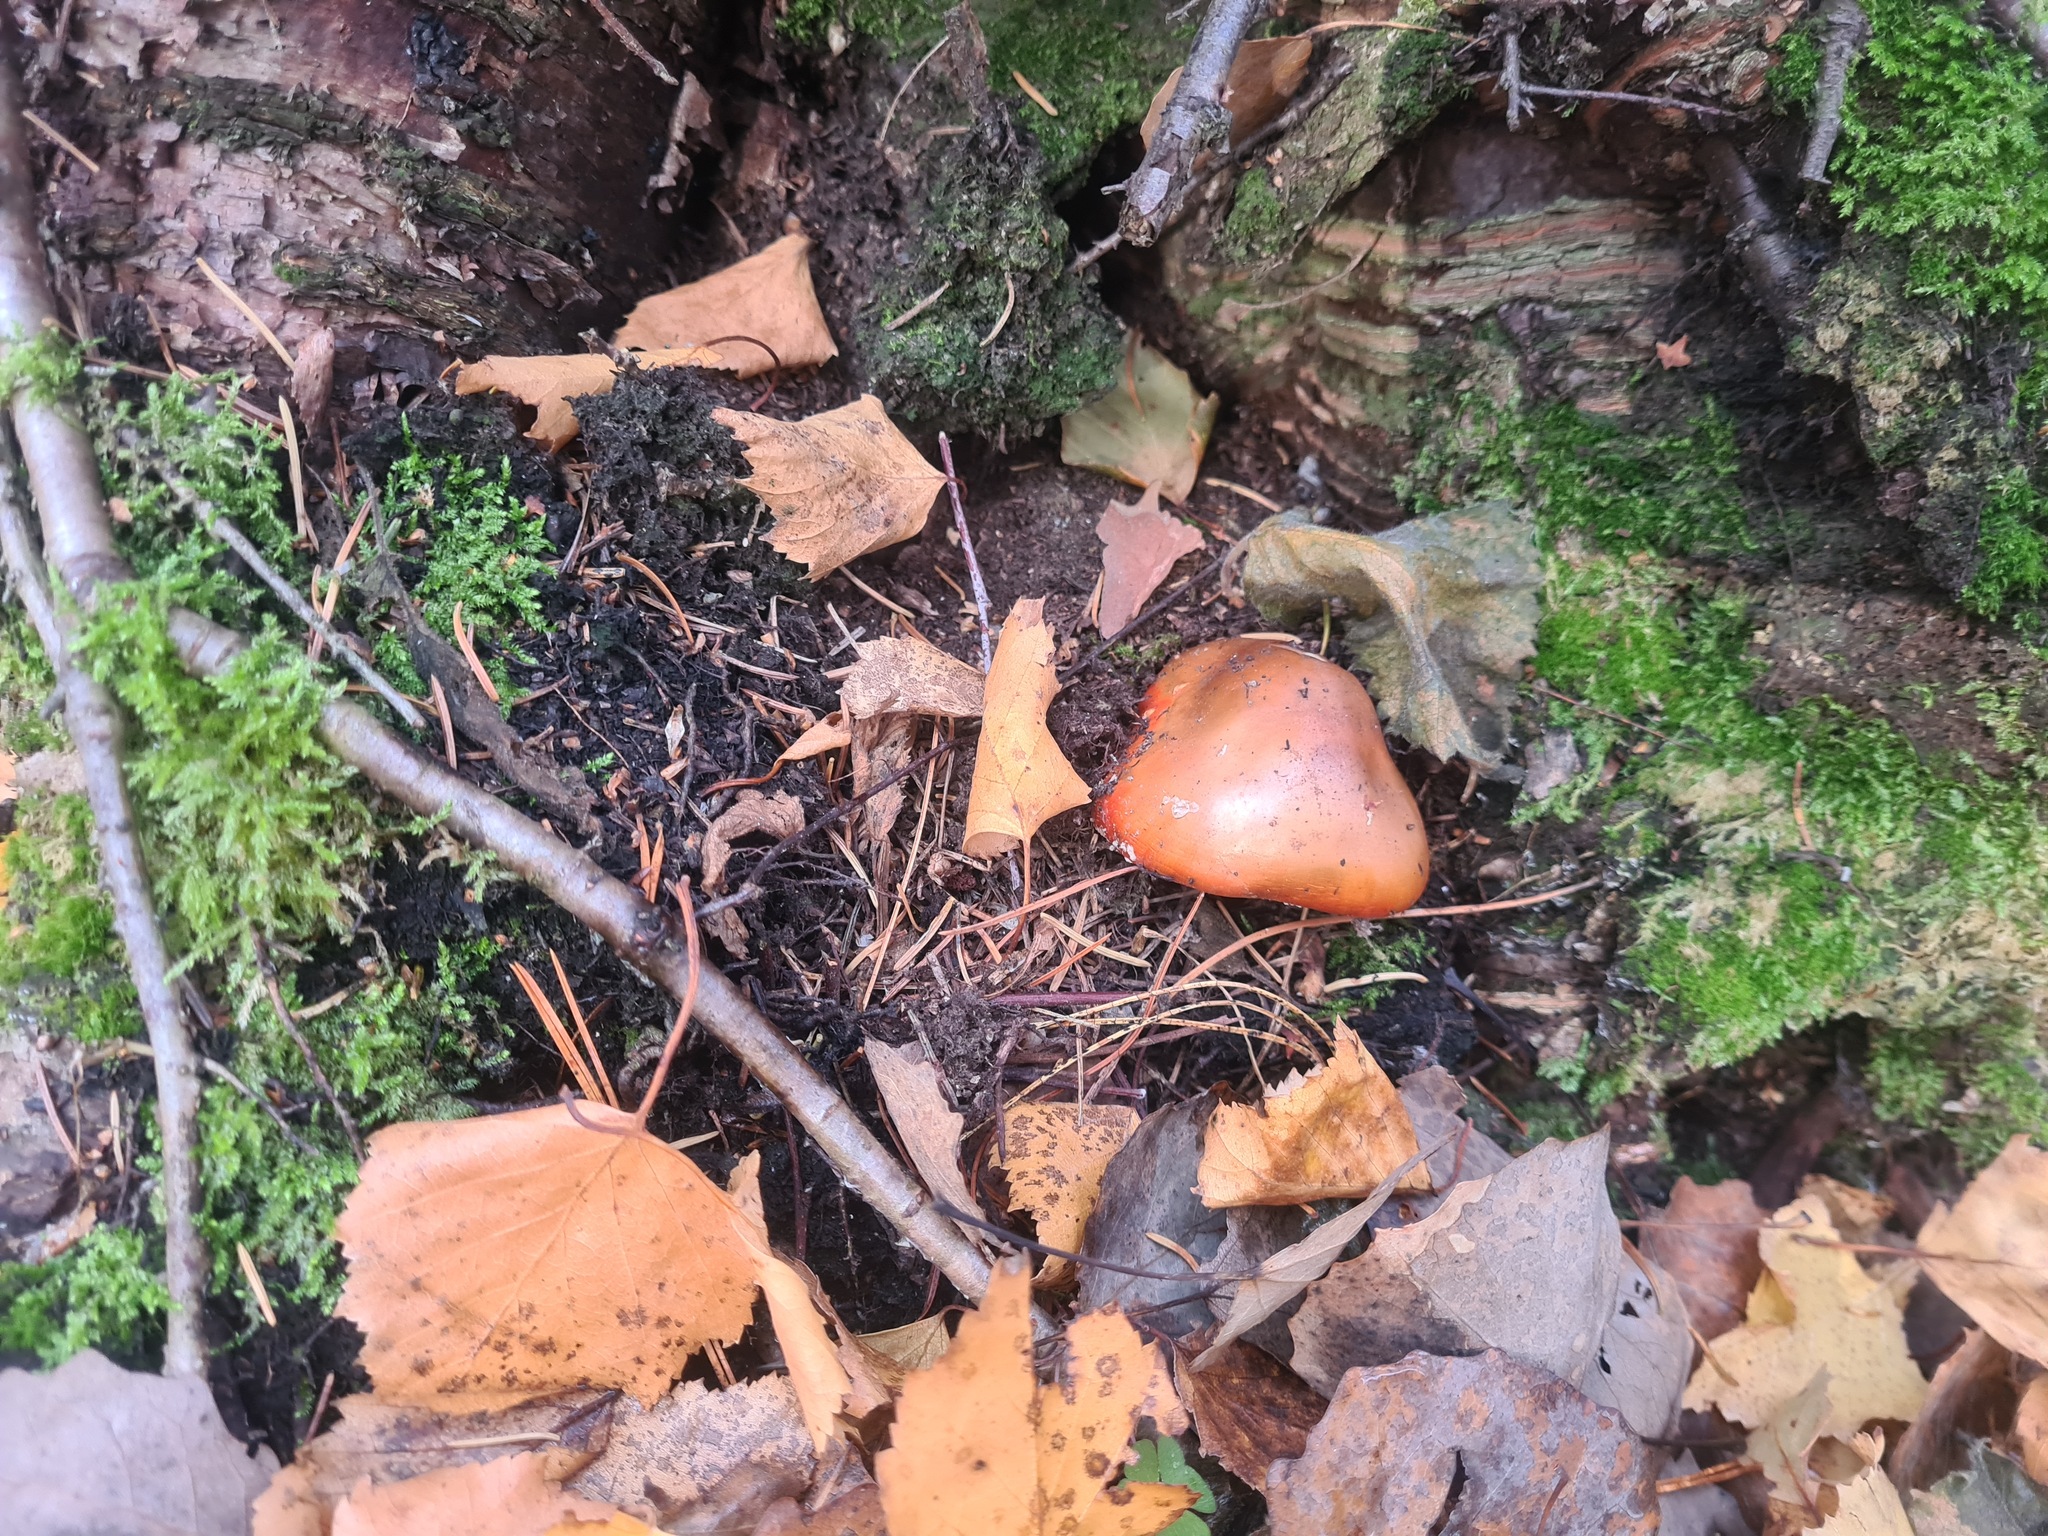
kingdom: Fungi
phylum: Basidiomycota
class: Agaricomycetes
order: Agaricales
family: Amanitaceae
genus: Amanita
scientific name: Amanita muscaria
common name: Fly agaric
